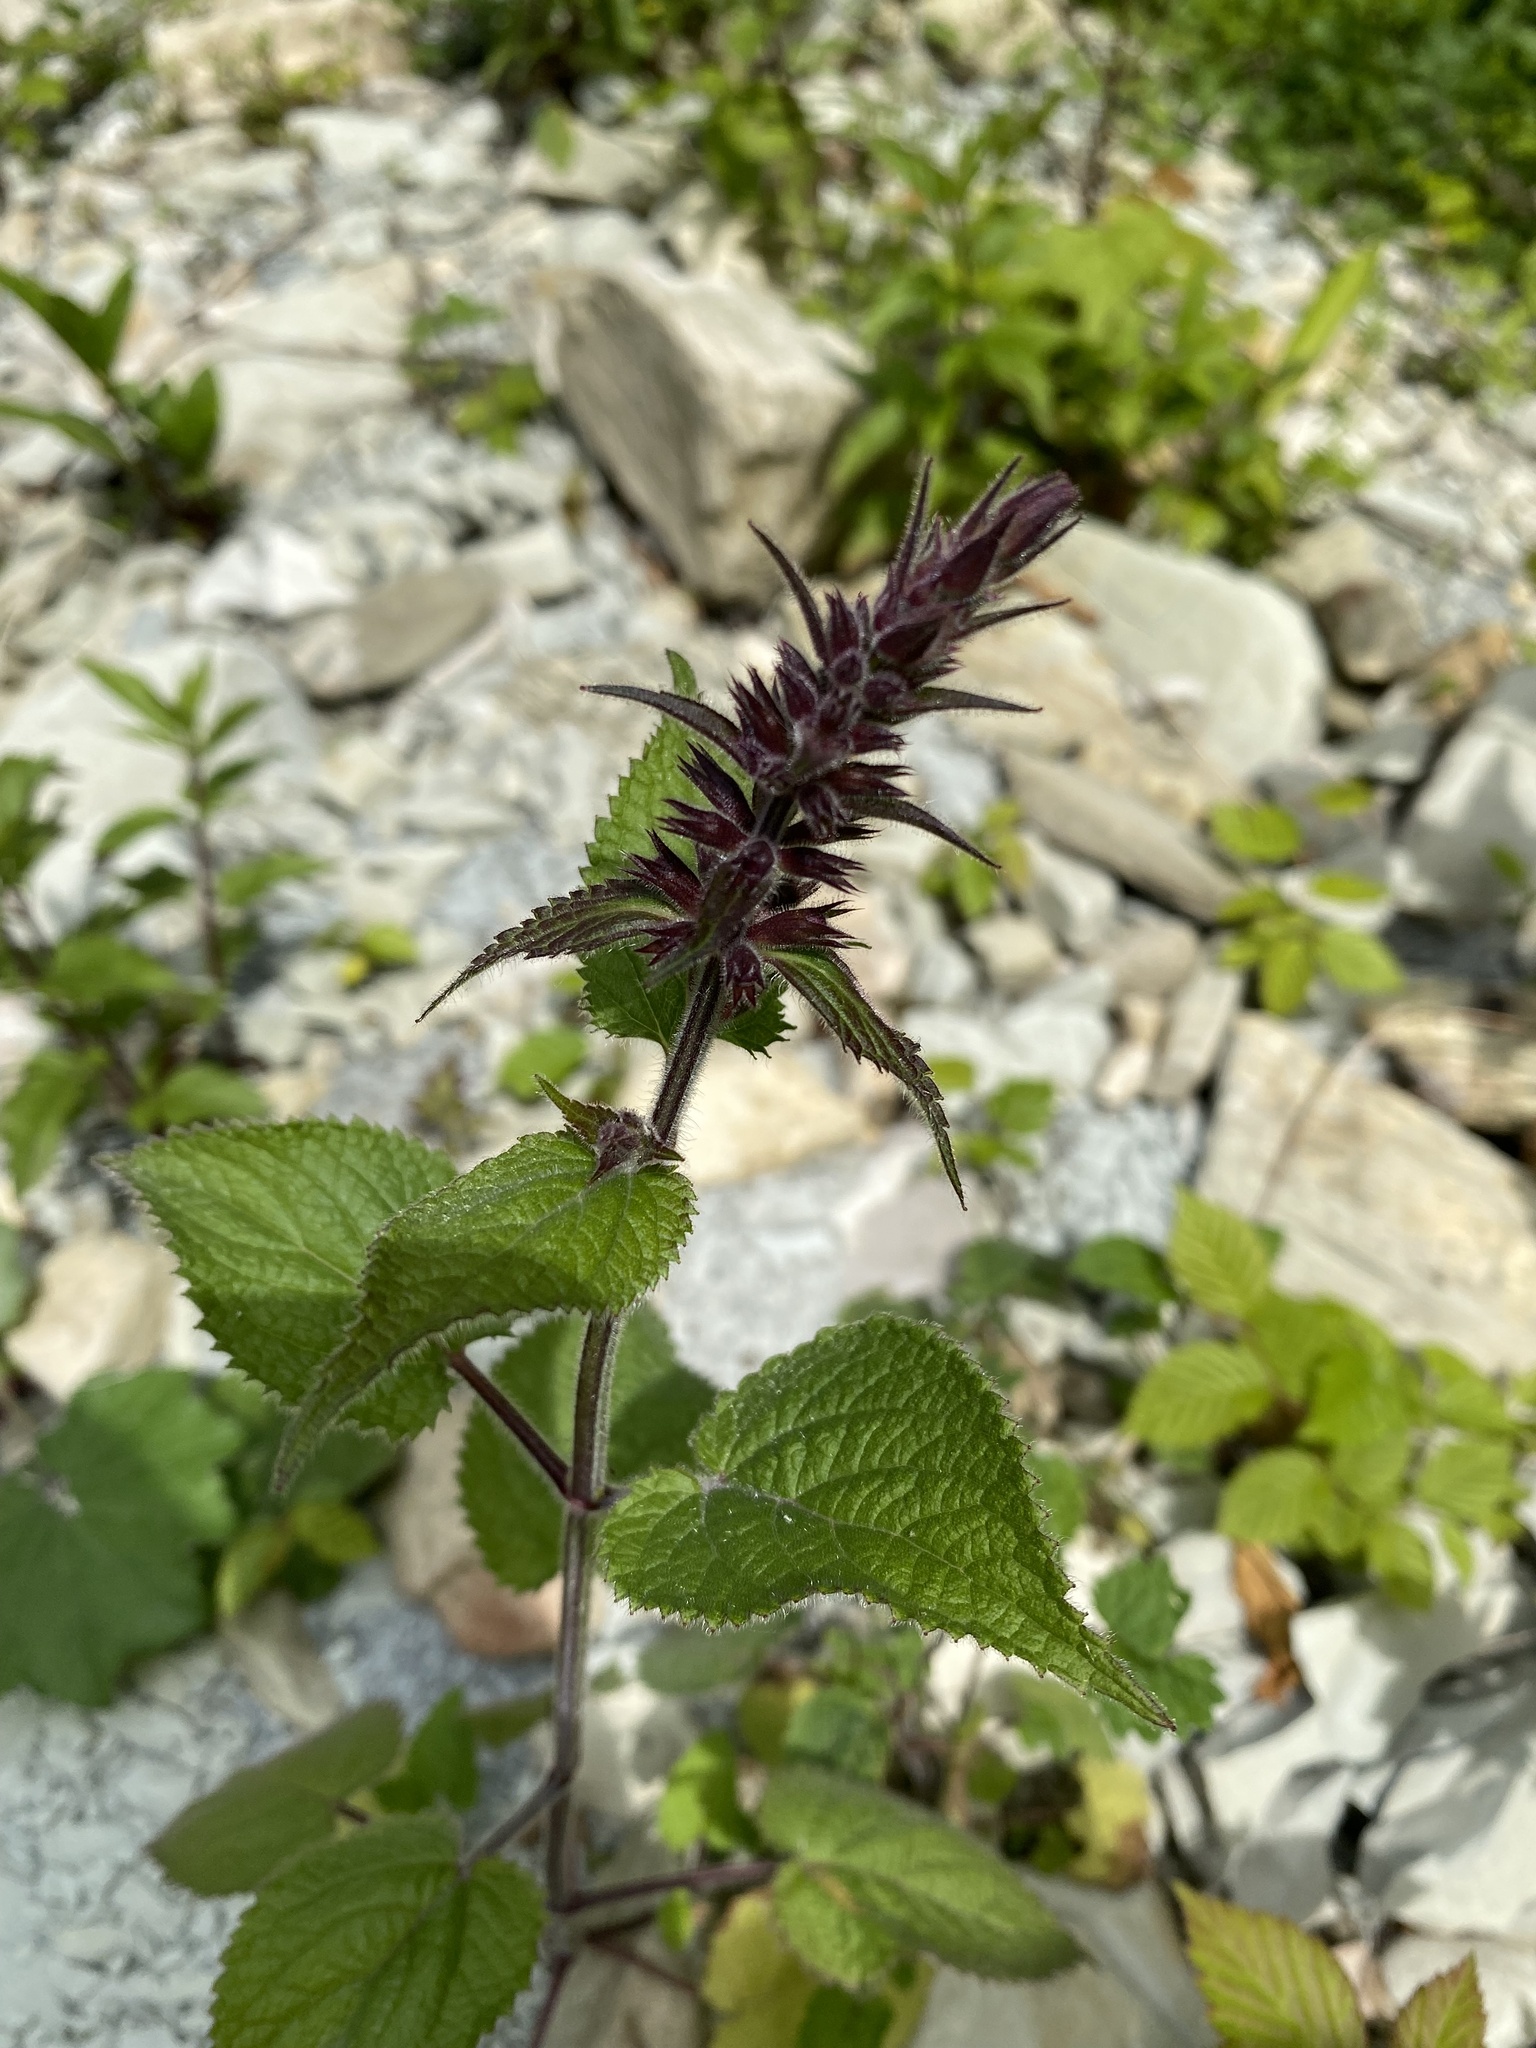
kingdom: Plantae
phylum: Tracheophyta
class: Magnoliopsida
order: Lamiales
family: Lamiaceae
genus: Stachys
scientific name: Stachys sylvatica
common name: Hedge woundwort
